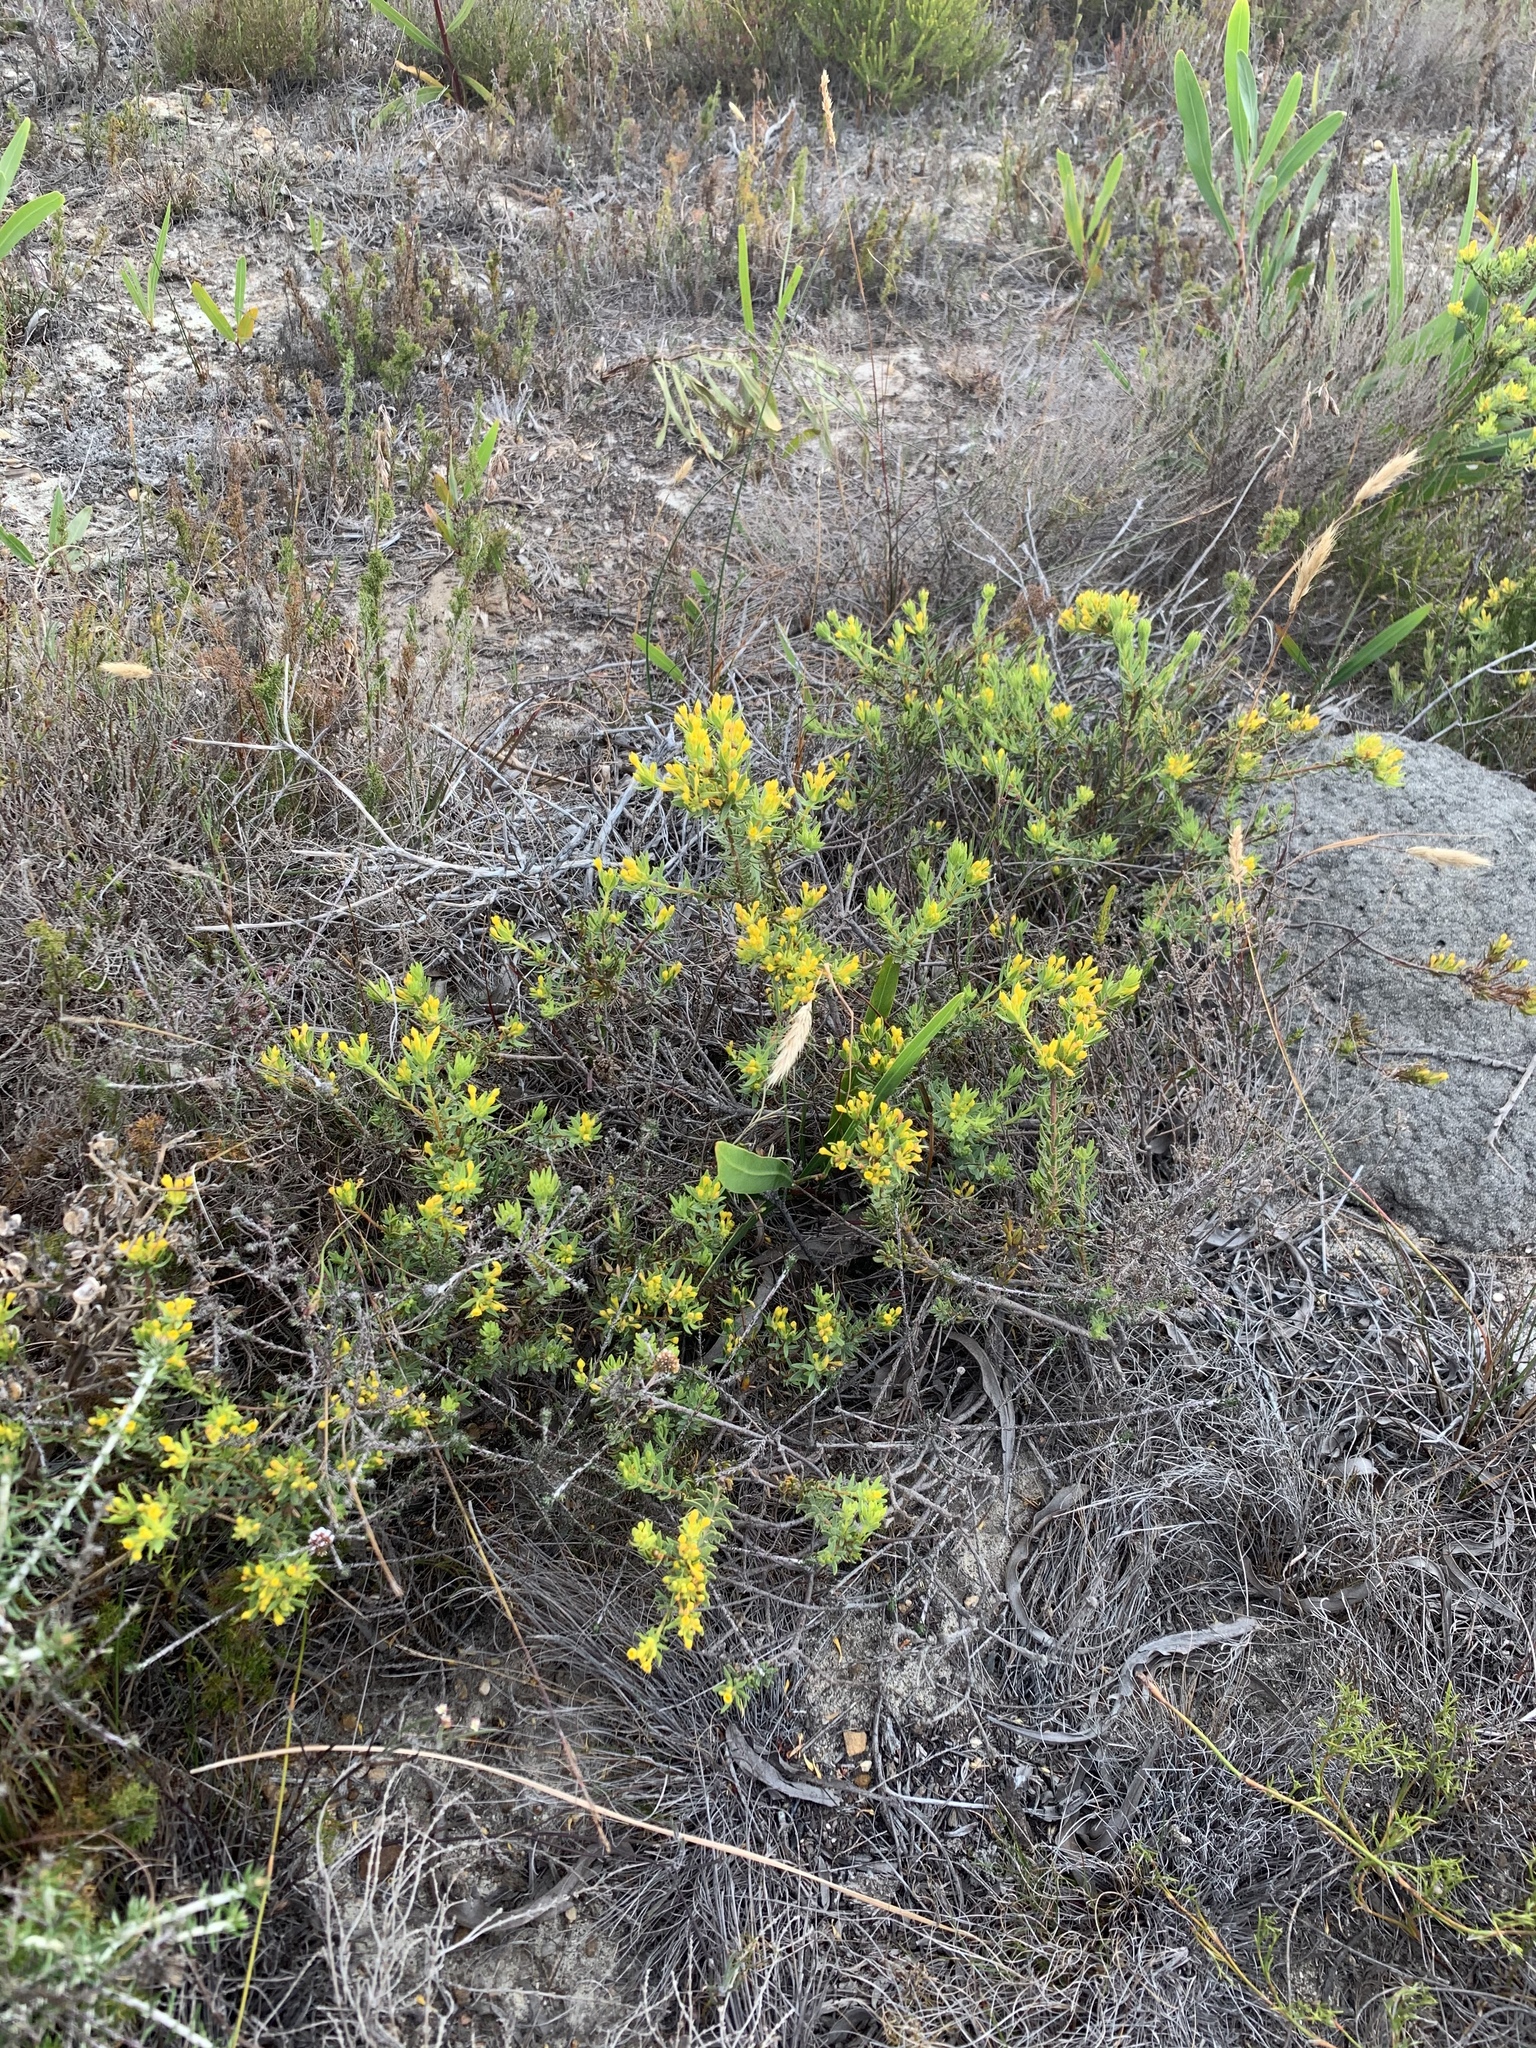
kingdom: Plantae
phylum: Tracheophyta
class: Magnoliopsida
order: Malvales
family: Thymelaeaceae
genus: Gnidia
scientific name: Gnidia simplex
